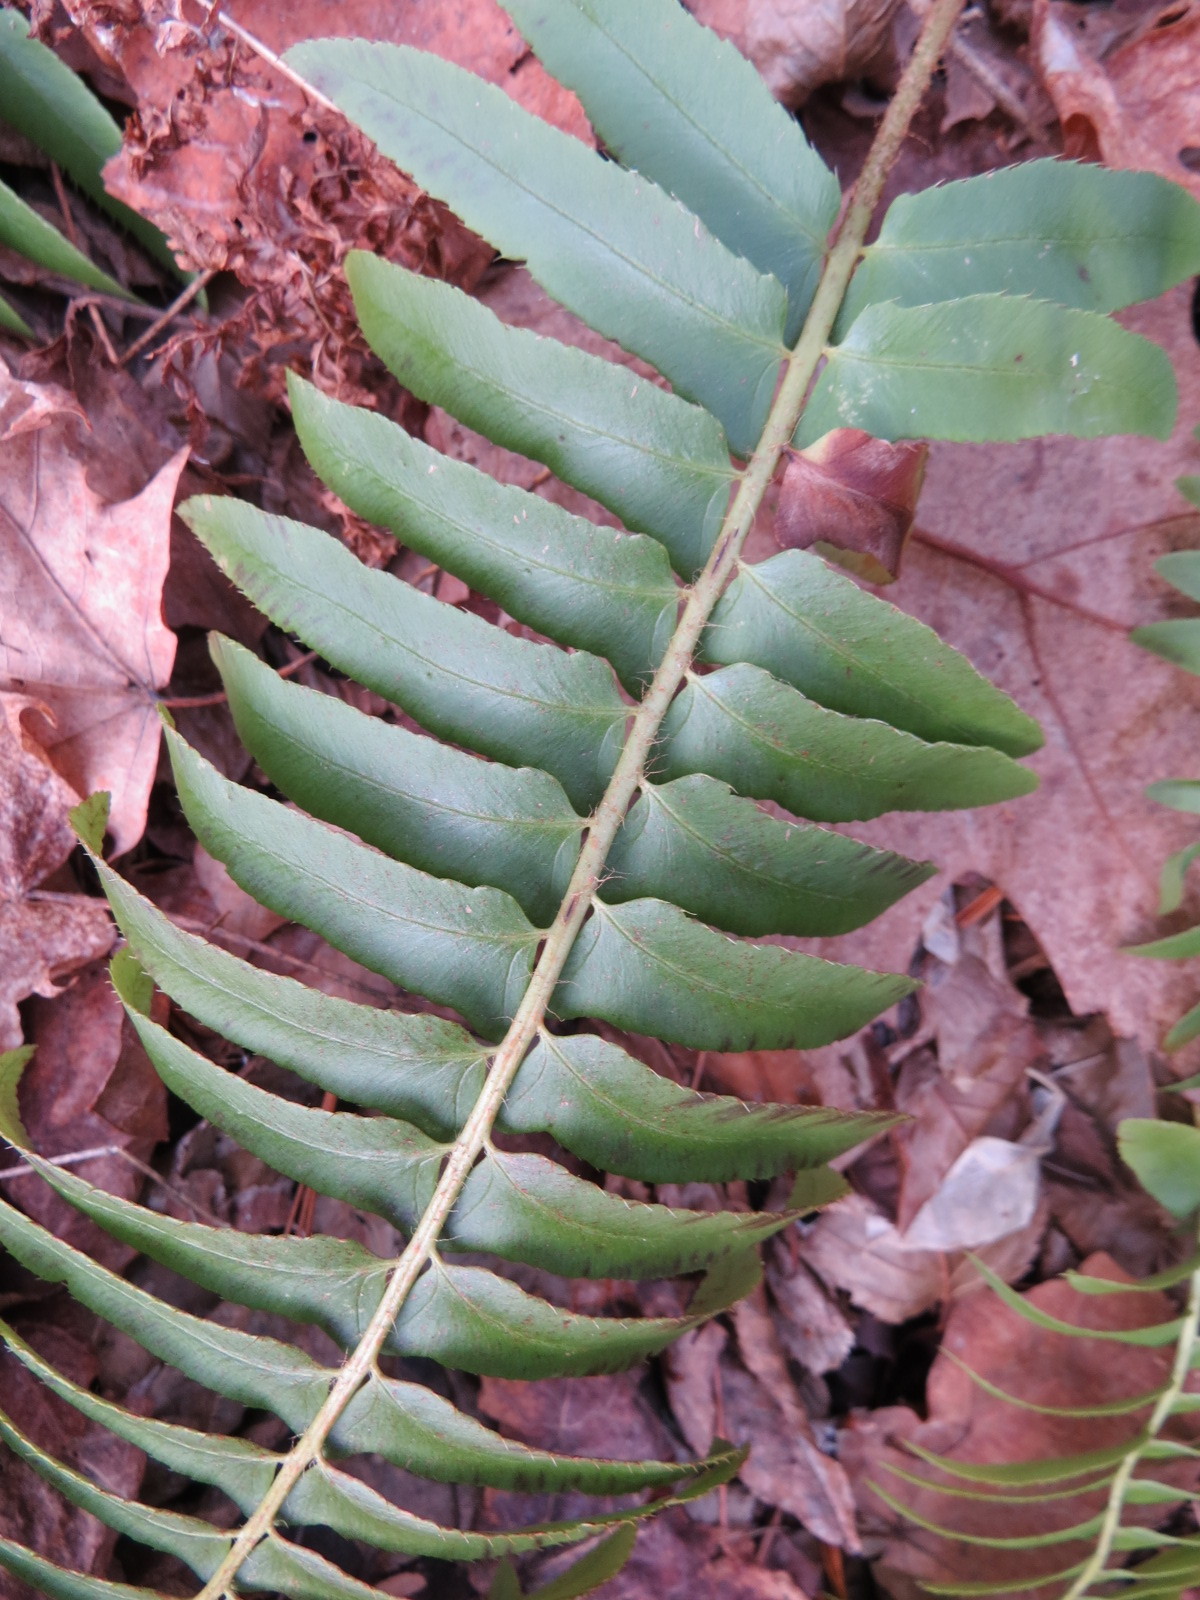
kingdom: Plantae
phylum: Tracheophyta
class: Polypodiopsida
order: Polypodiales
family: Dryopteridaceae
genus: Polystichum
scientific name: Polystichum acrostichoides
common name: Christmas fern
